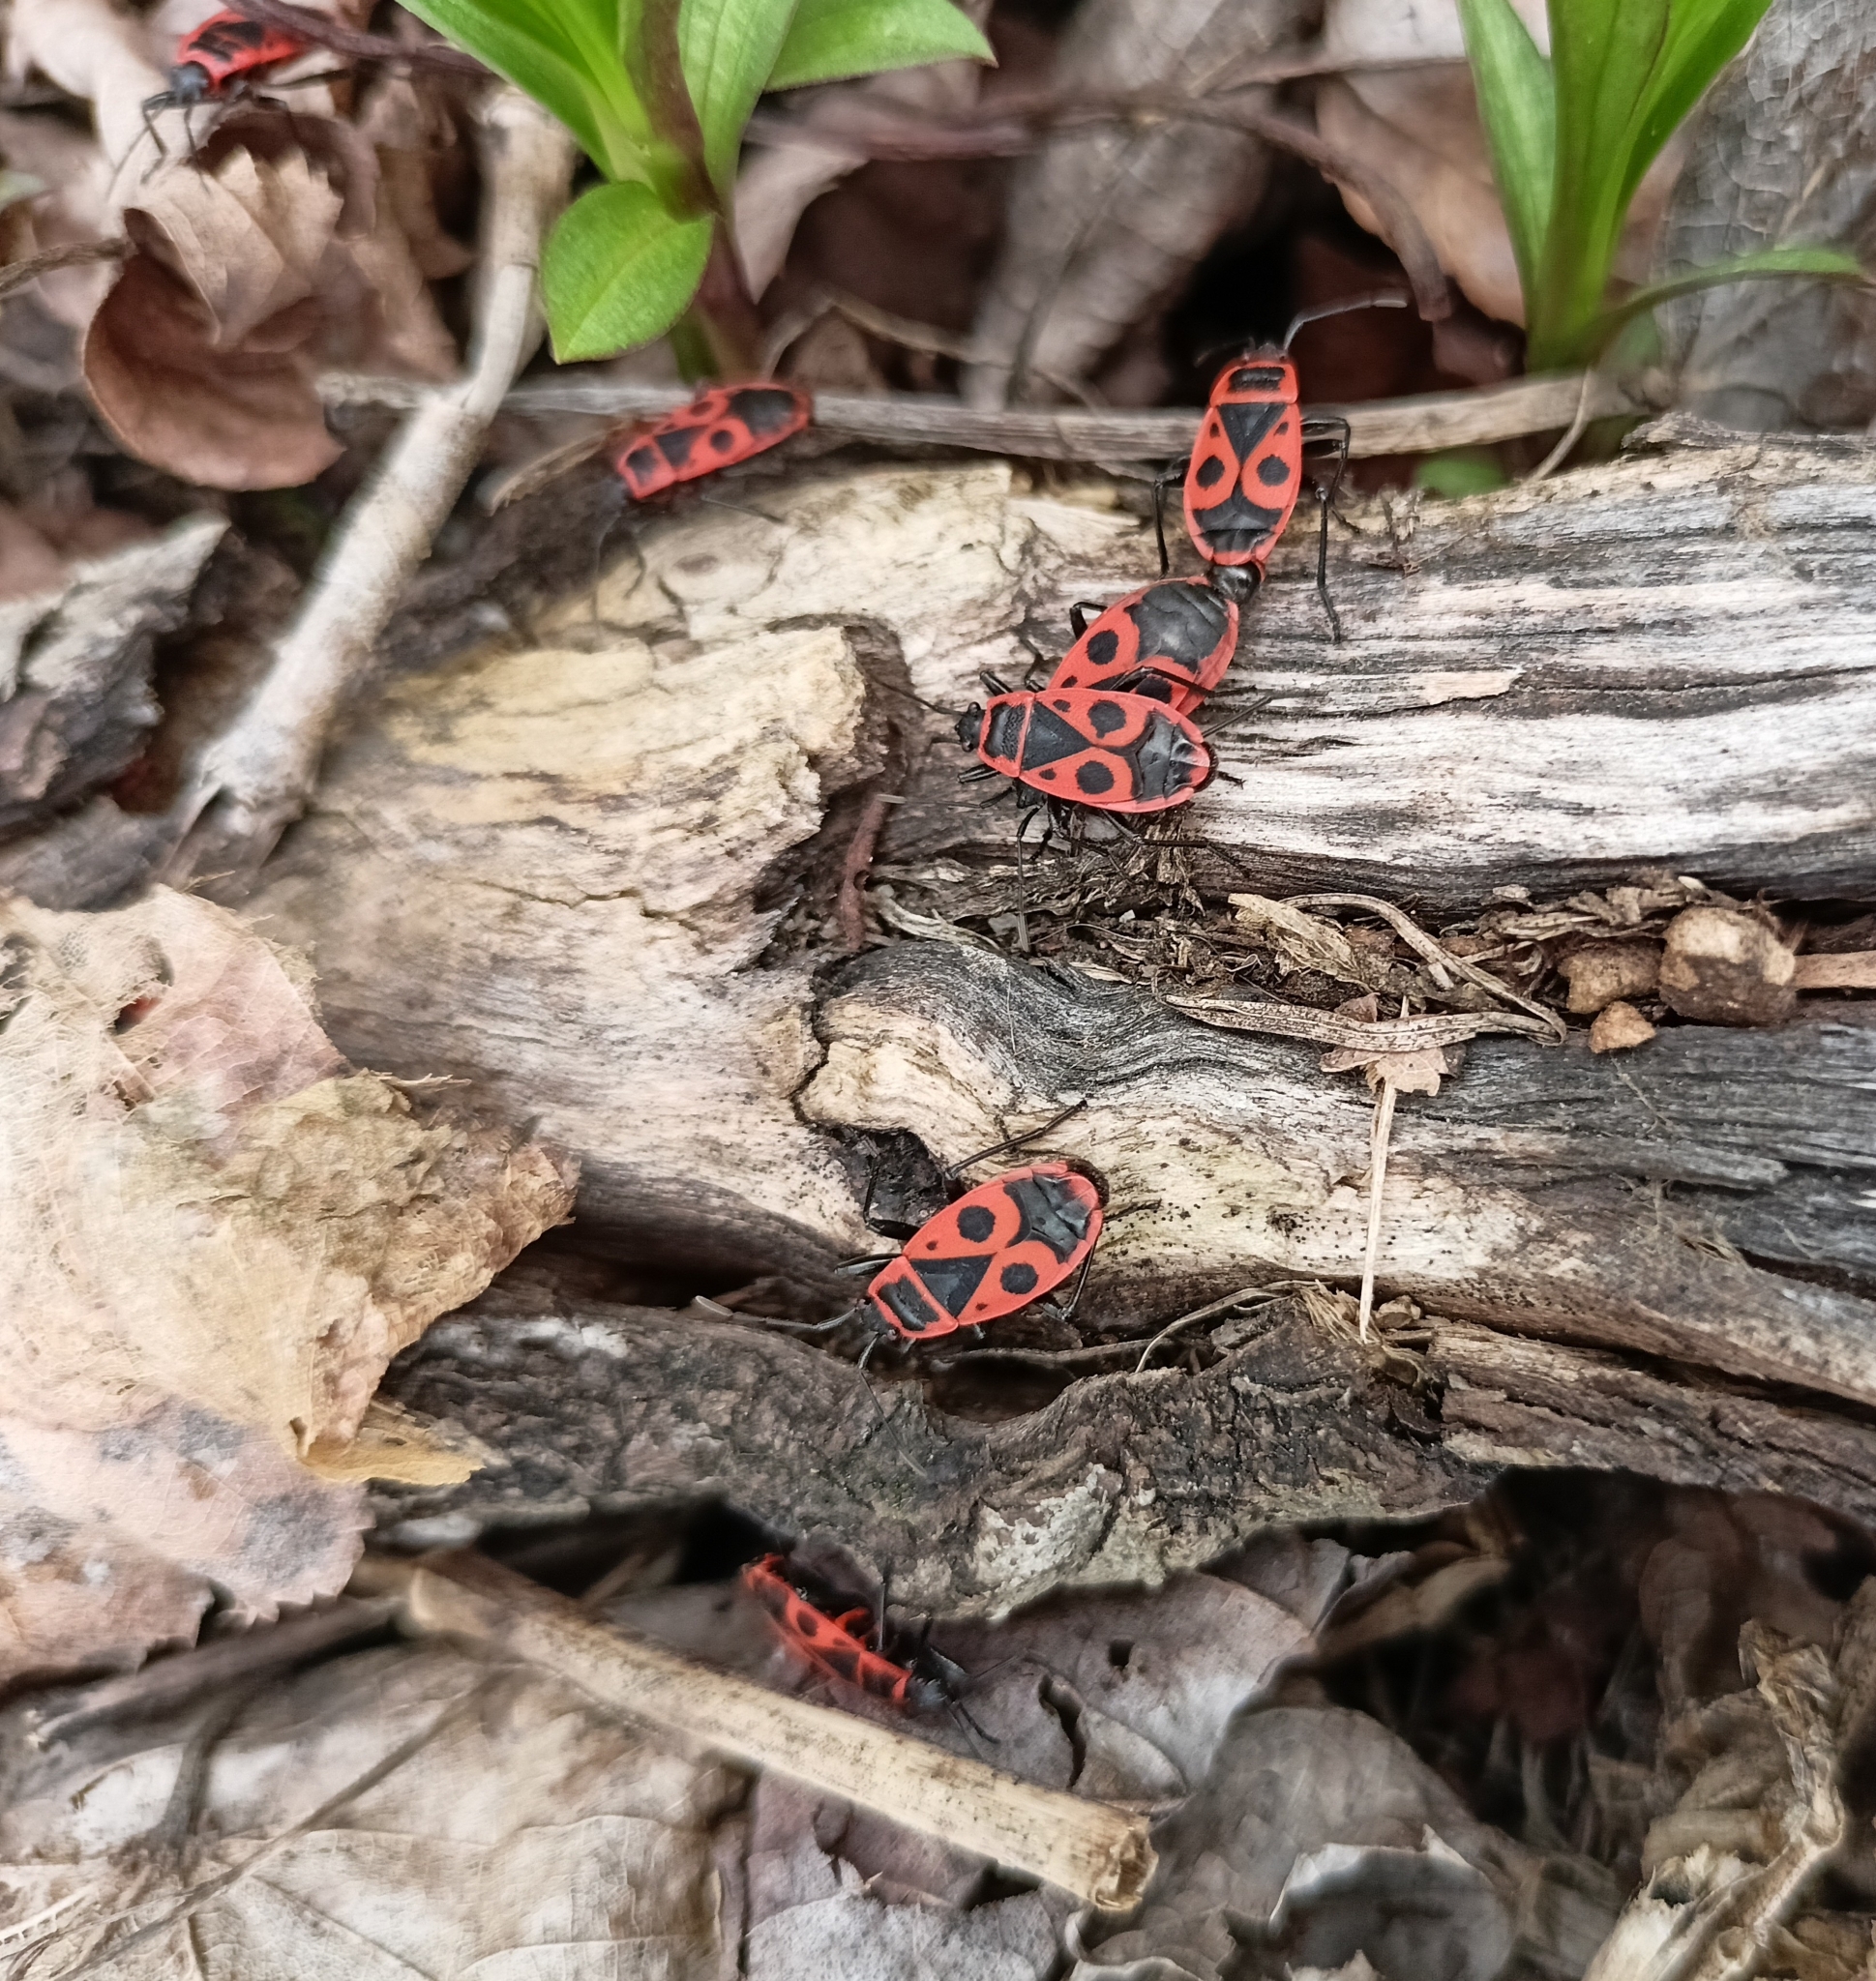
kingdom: Animalia
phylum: Arthropoda
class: Insecta
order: Hemiptera
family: Pyrrhocoridae
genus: Pyrrhocoris
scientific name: Pyrrhocoris apterus
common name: Firebug
